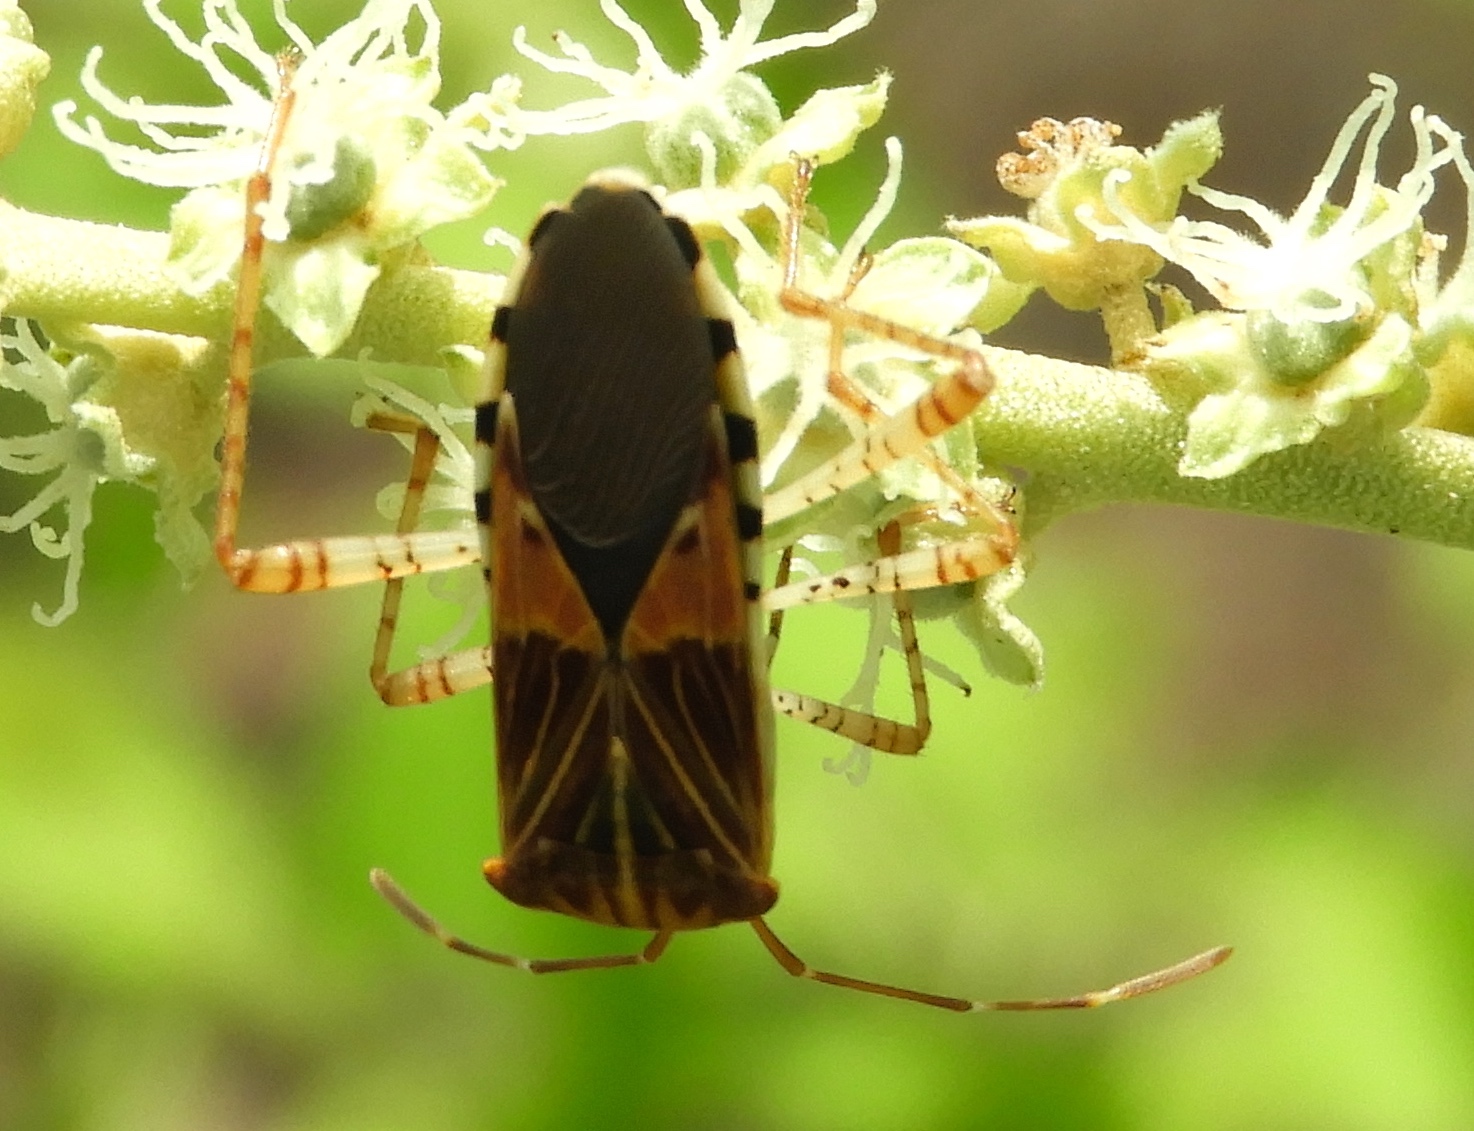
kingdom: Animalia
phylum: Arthropoda
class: Insecta
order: Hemiptera
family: Coreidae
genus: Hypselonotus
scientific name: Hypselonotus punctiventris
